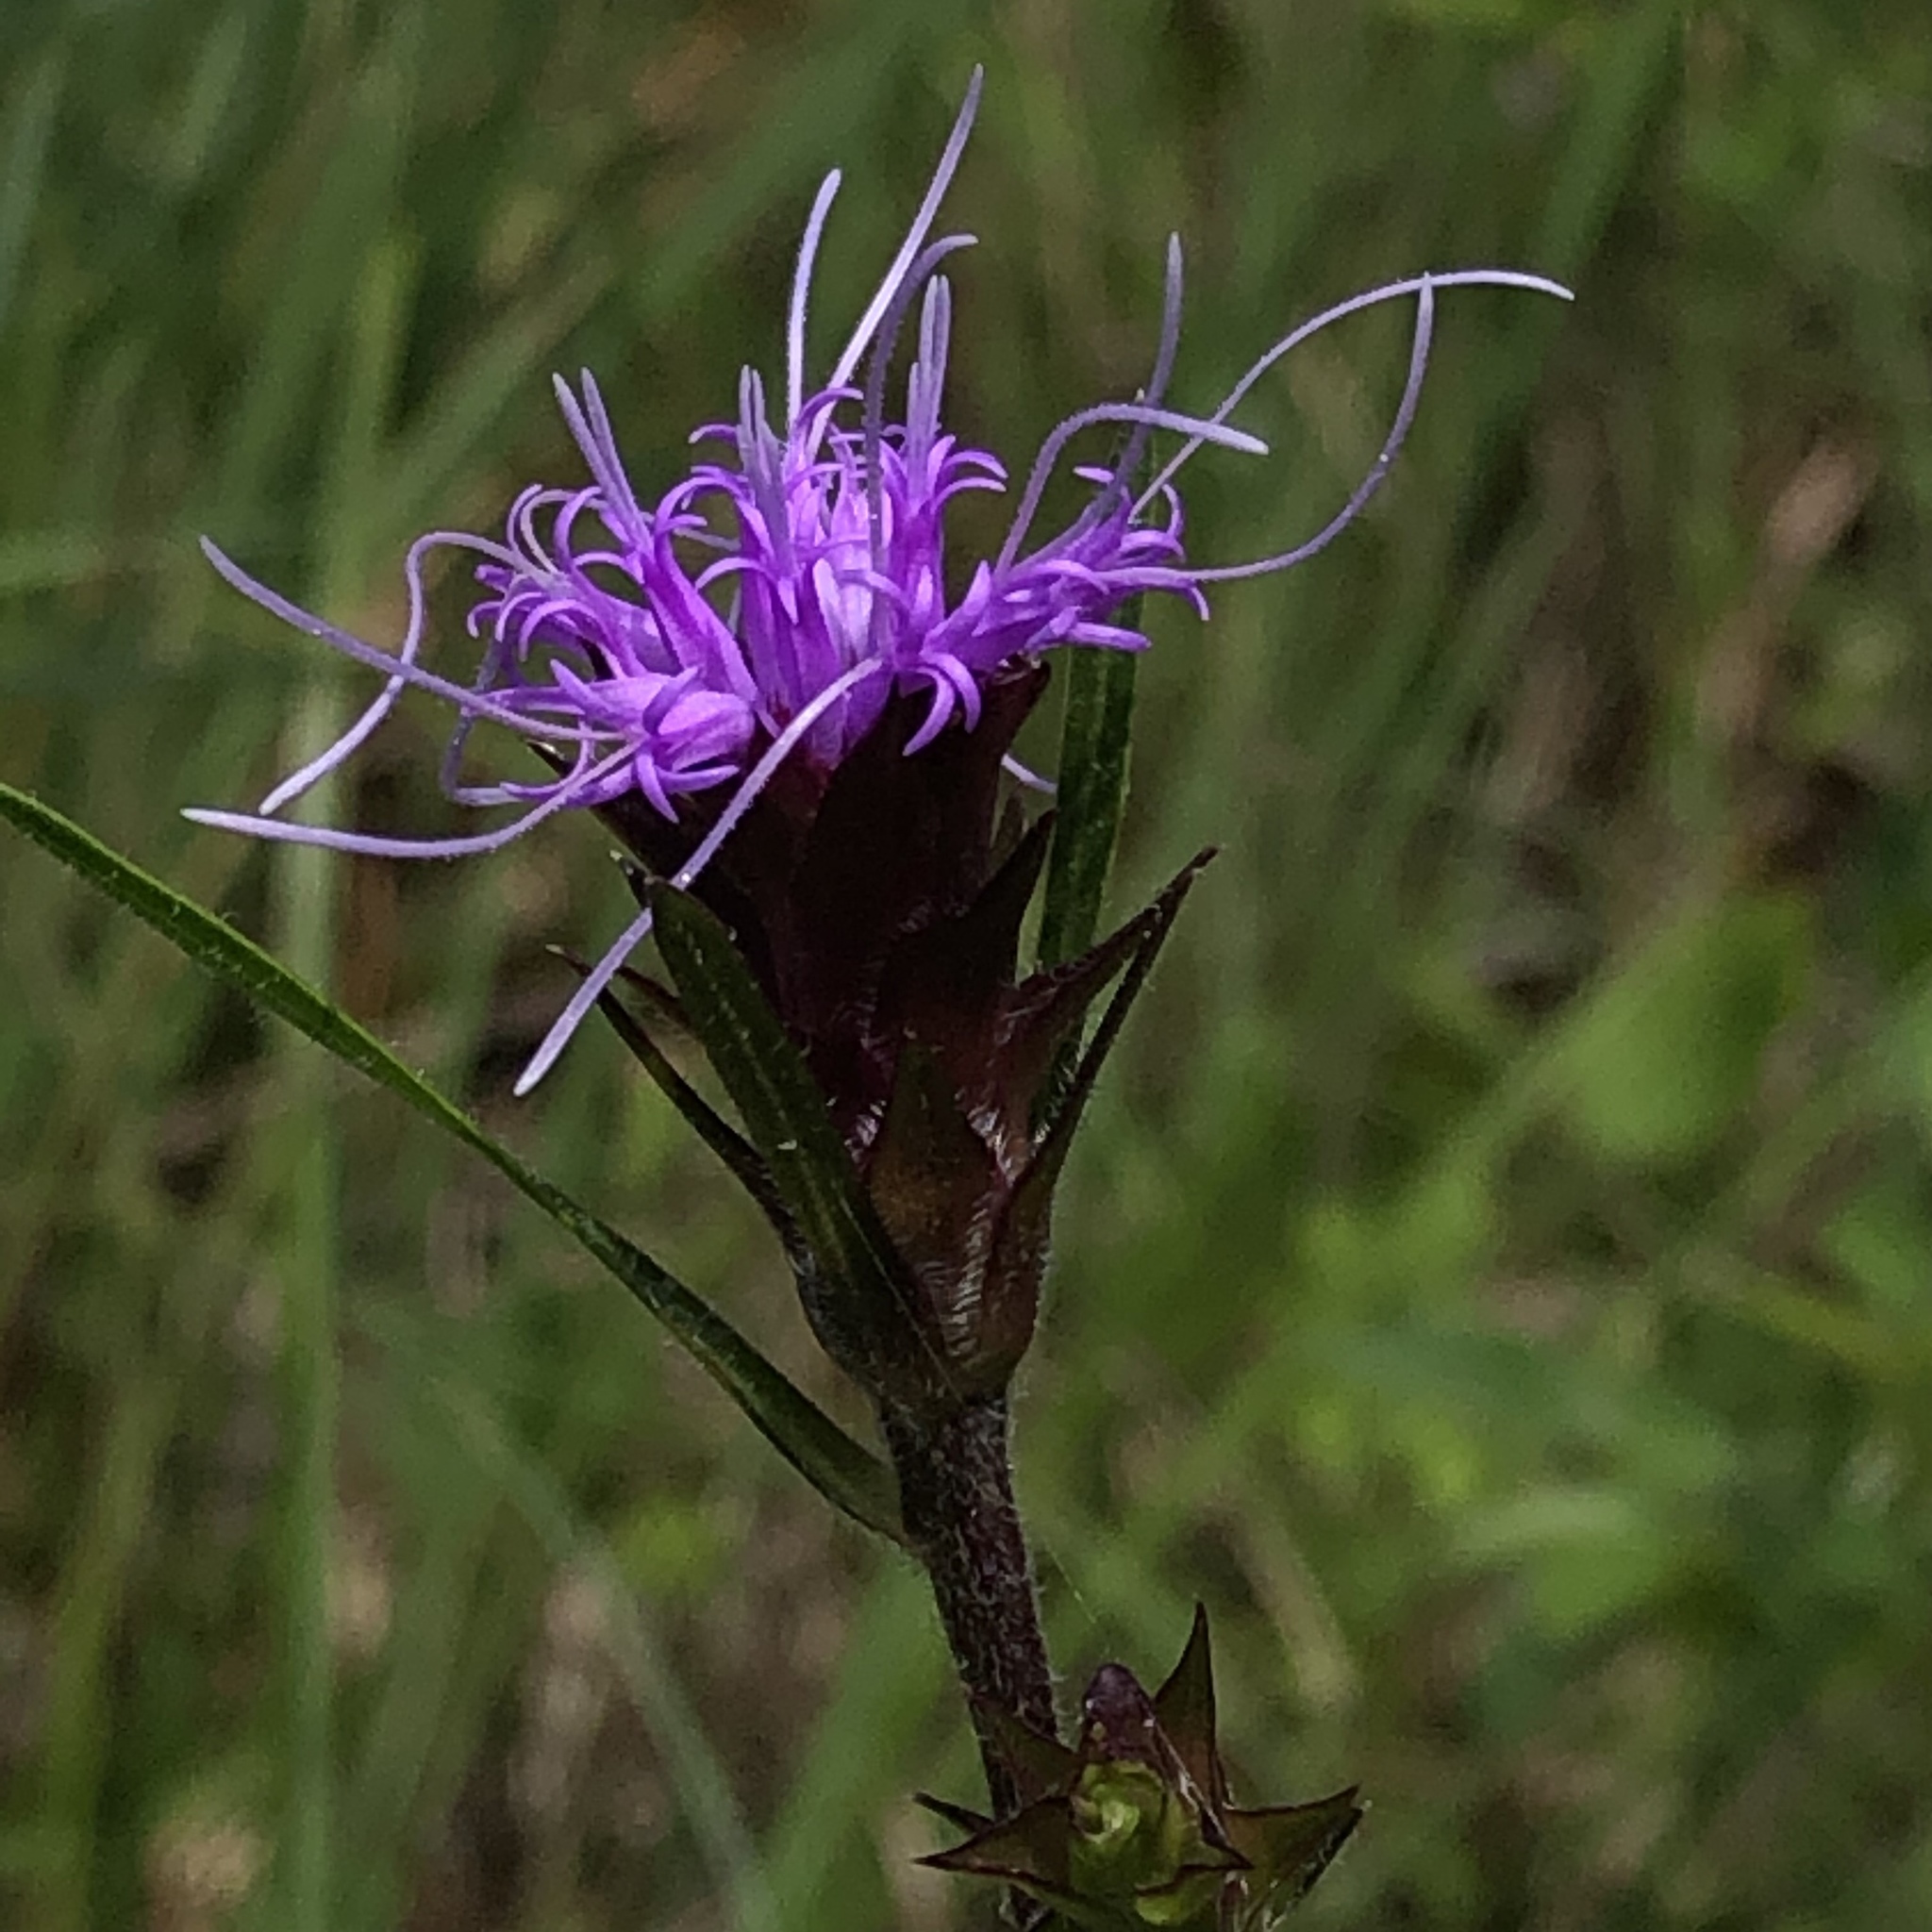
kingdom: Plantae
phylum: Tracheophyta
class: Magnoliopsida
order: Asterales
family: Asteraceae
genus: Liatris
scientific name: Liatris squarrosa
